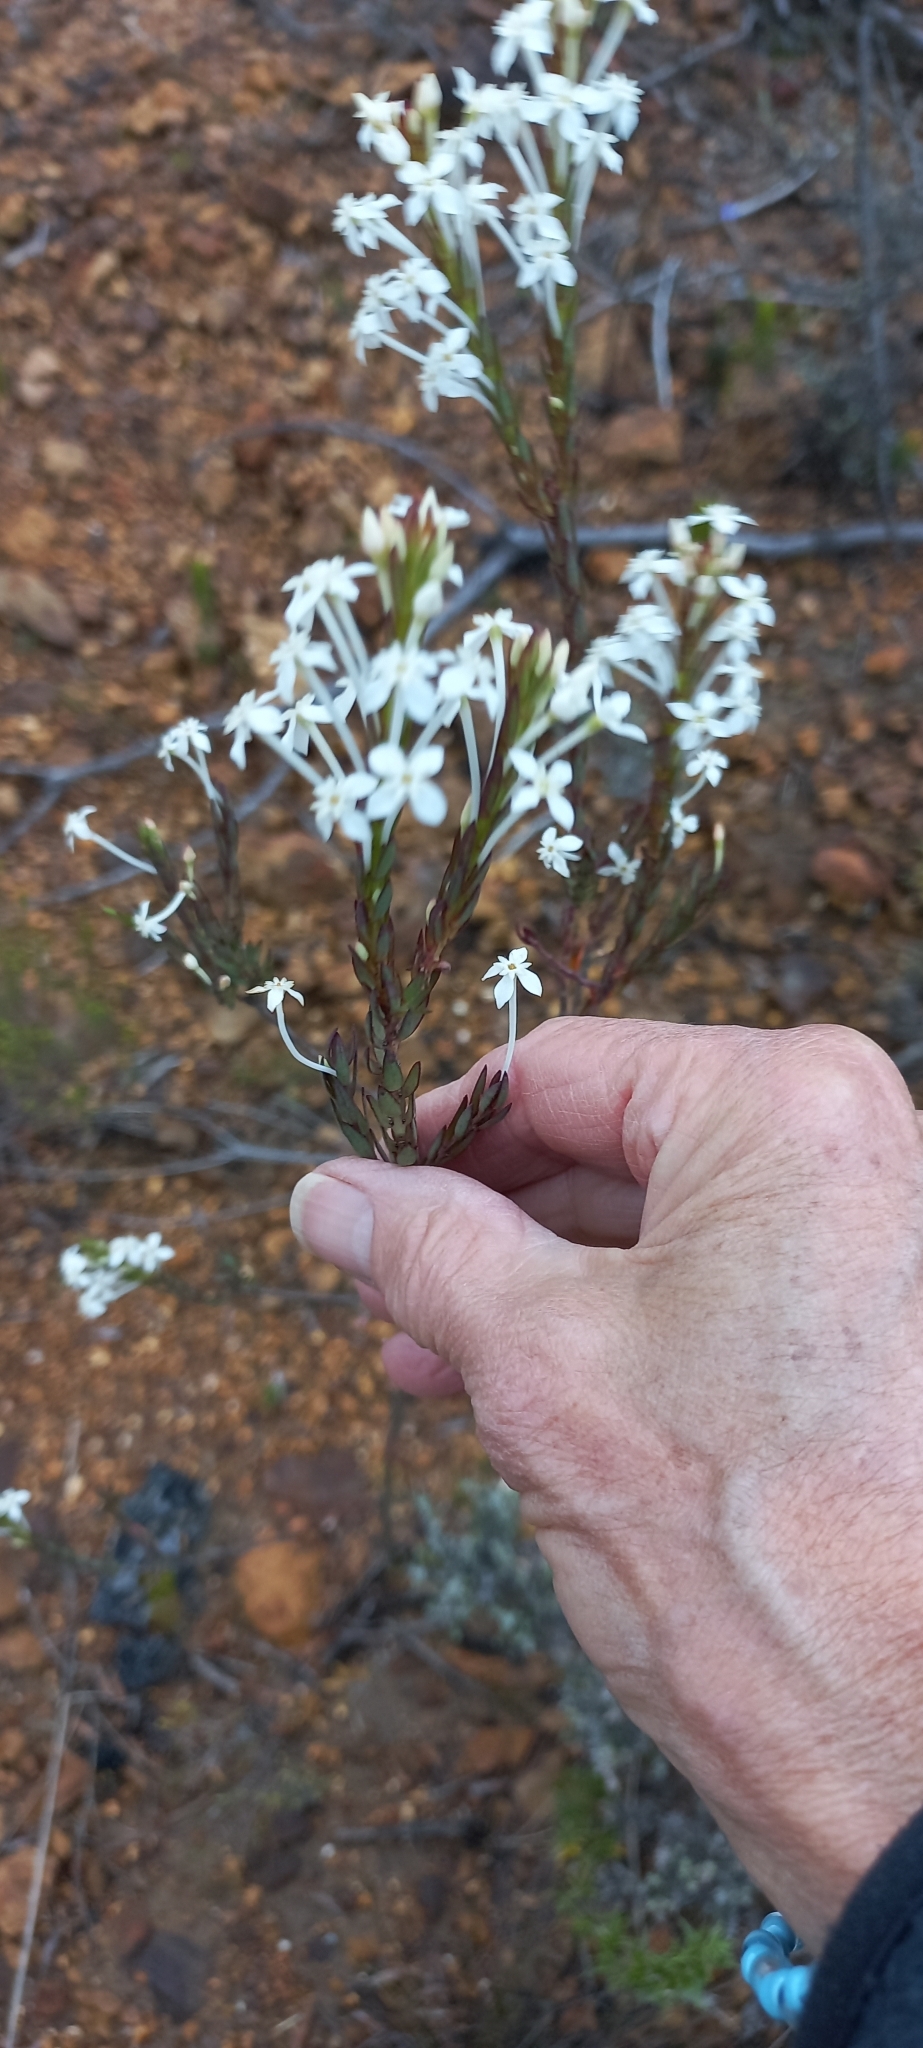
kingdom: Plantae
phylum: Tracheophyta
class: Magnoliopsida
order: Malvales
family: Thymelaeaceae
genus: Struthiola
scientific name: Struthiola myrsinites
